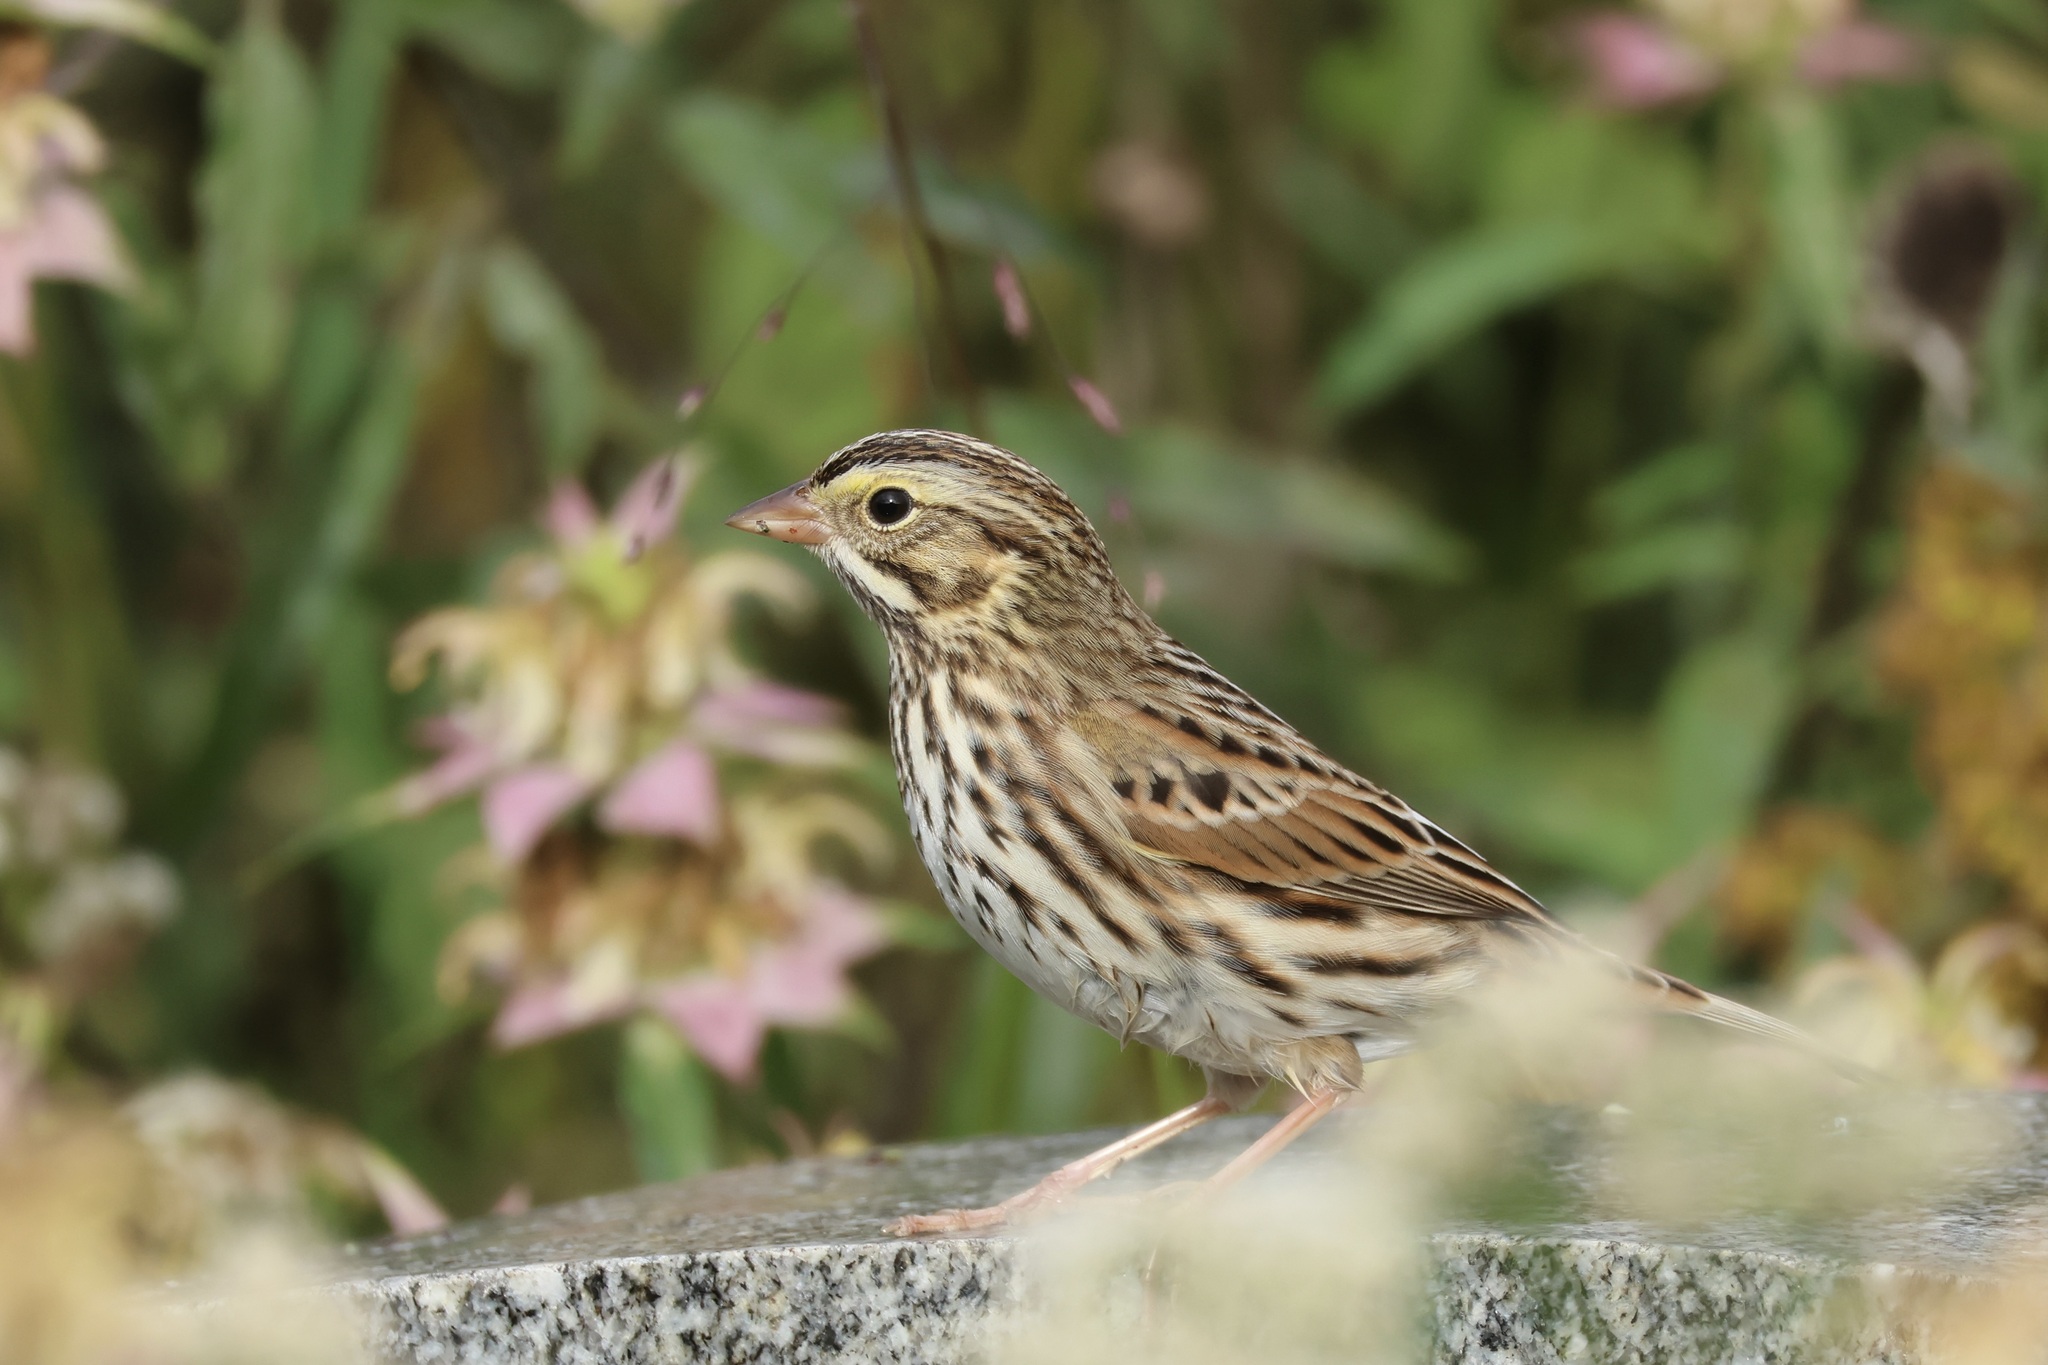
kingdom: Animalia
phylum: Chordata
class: Aves
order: Passeriformes
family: Passerellidae
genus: Passerculus
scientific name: Passerculus sandwichensis
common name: Savannah sparrow
